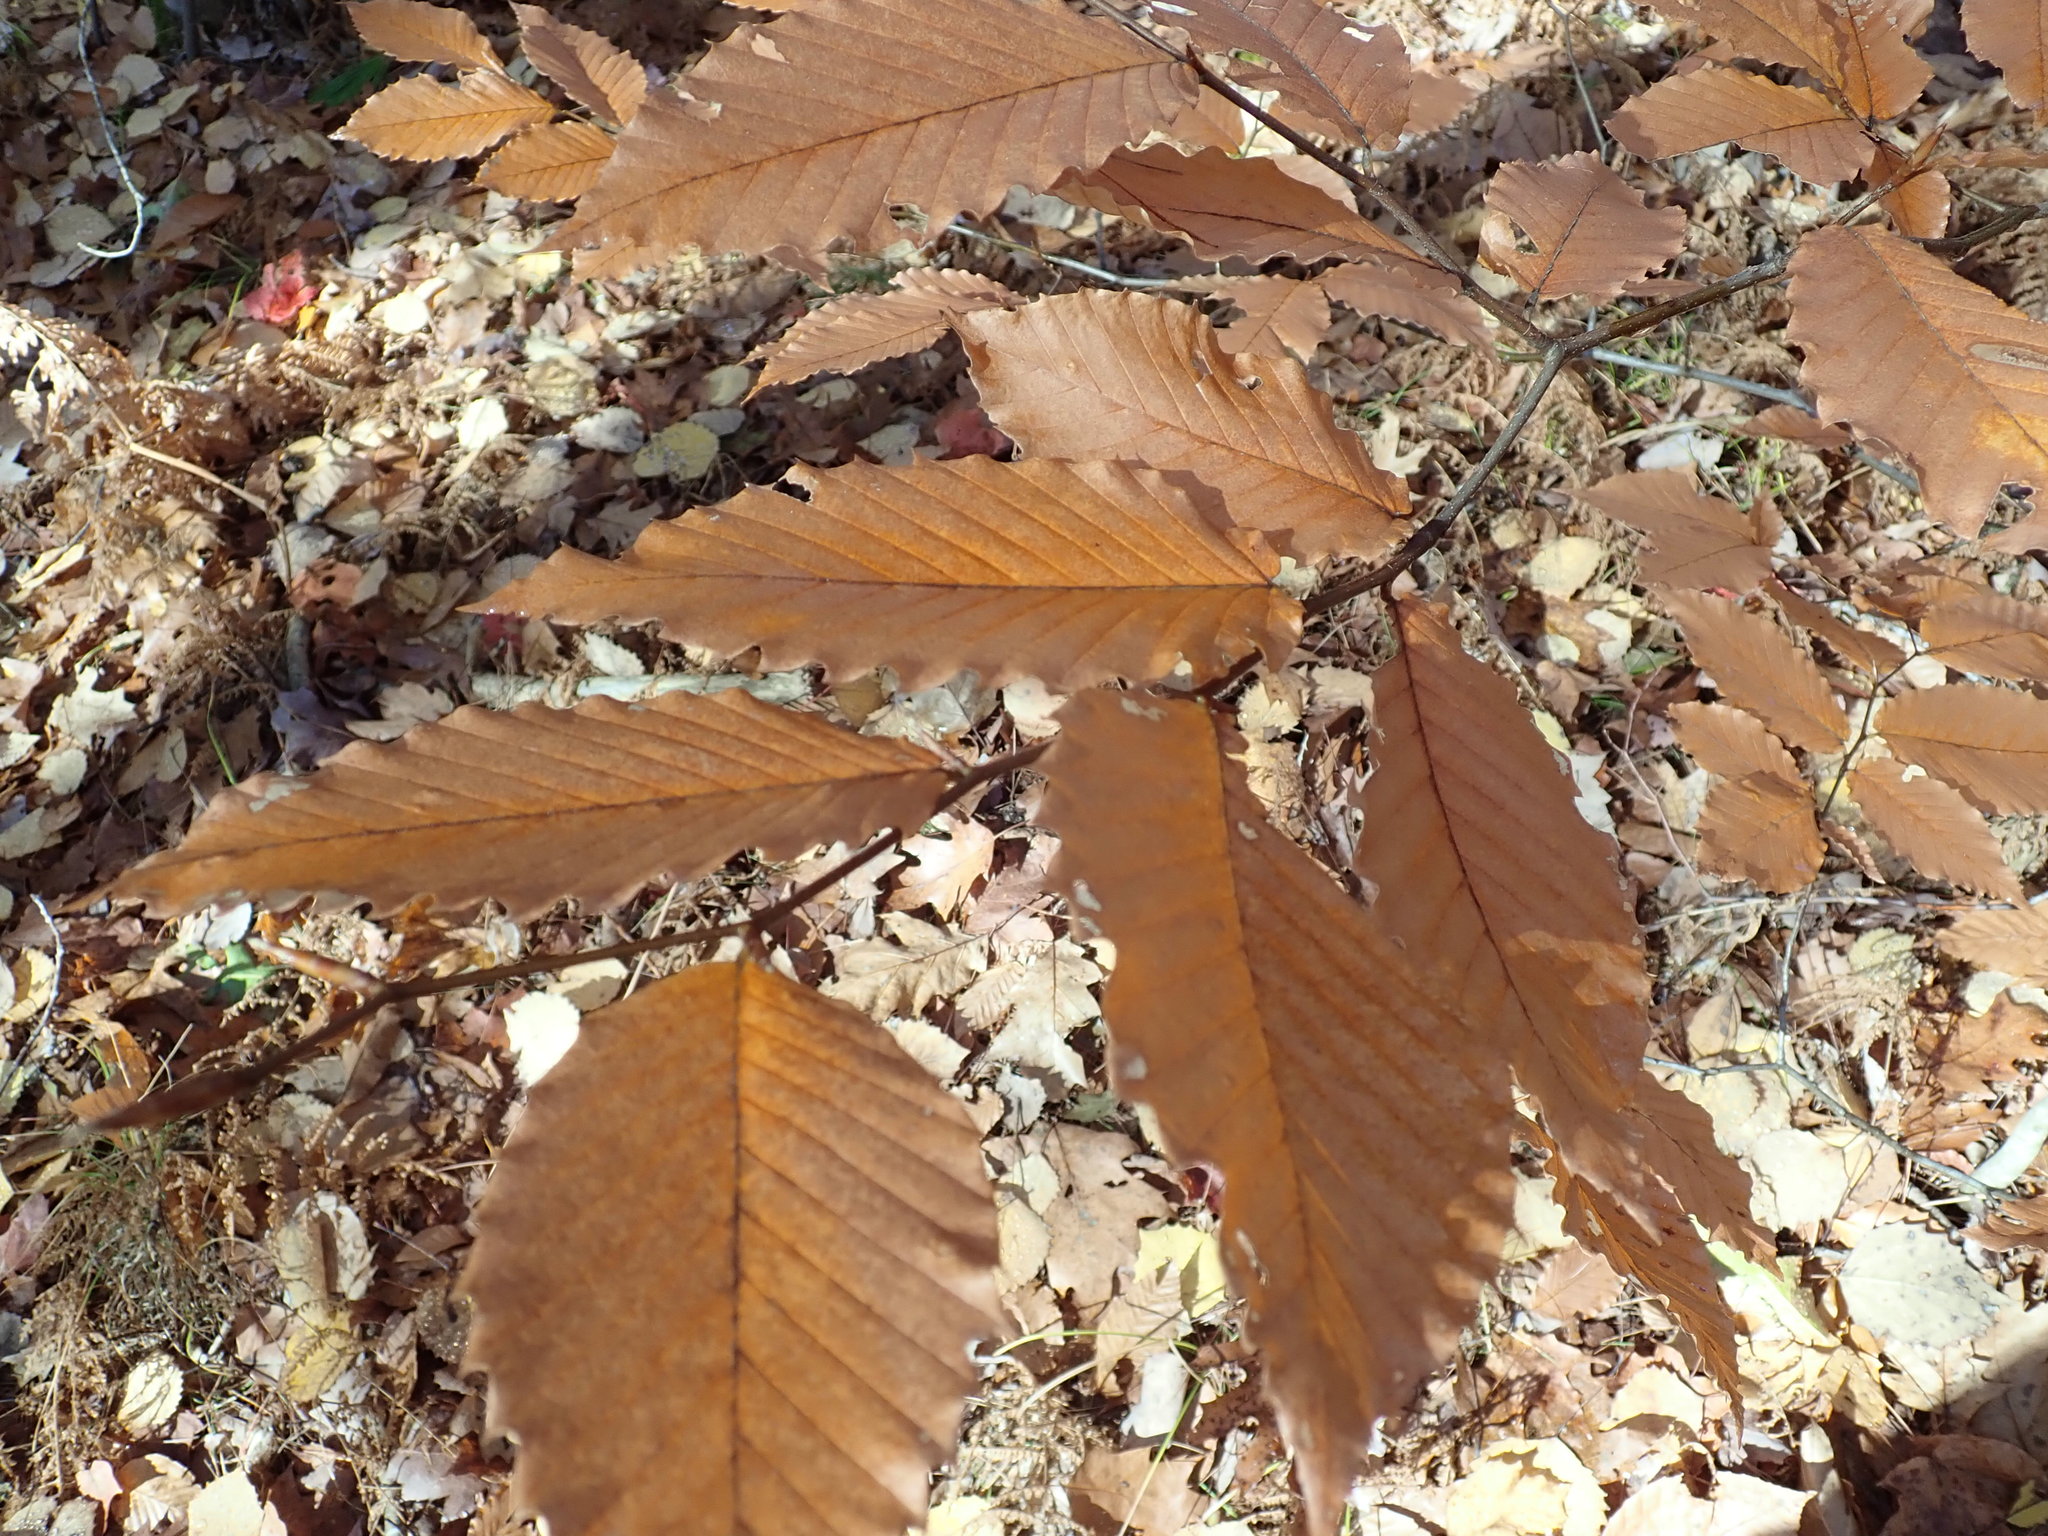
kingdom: Plantae
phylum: Tracheophyta
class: Magnoliopsida
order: Fagales
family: Fagaceae
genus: Fagus
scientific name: Fagus grandifolia
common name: American beech
